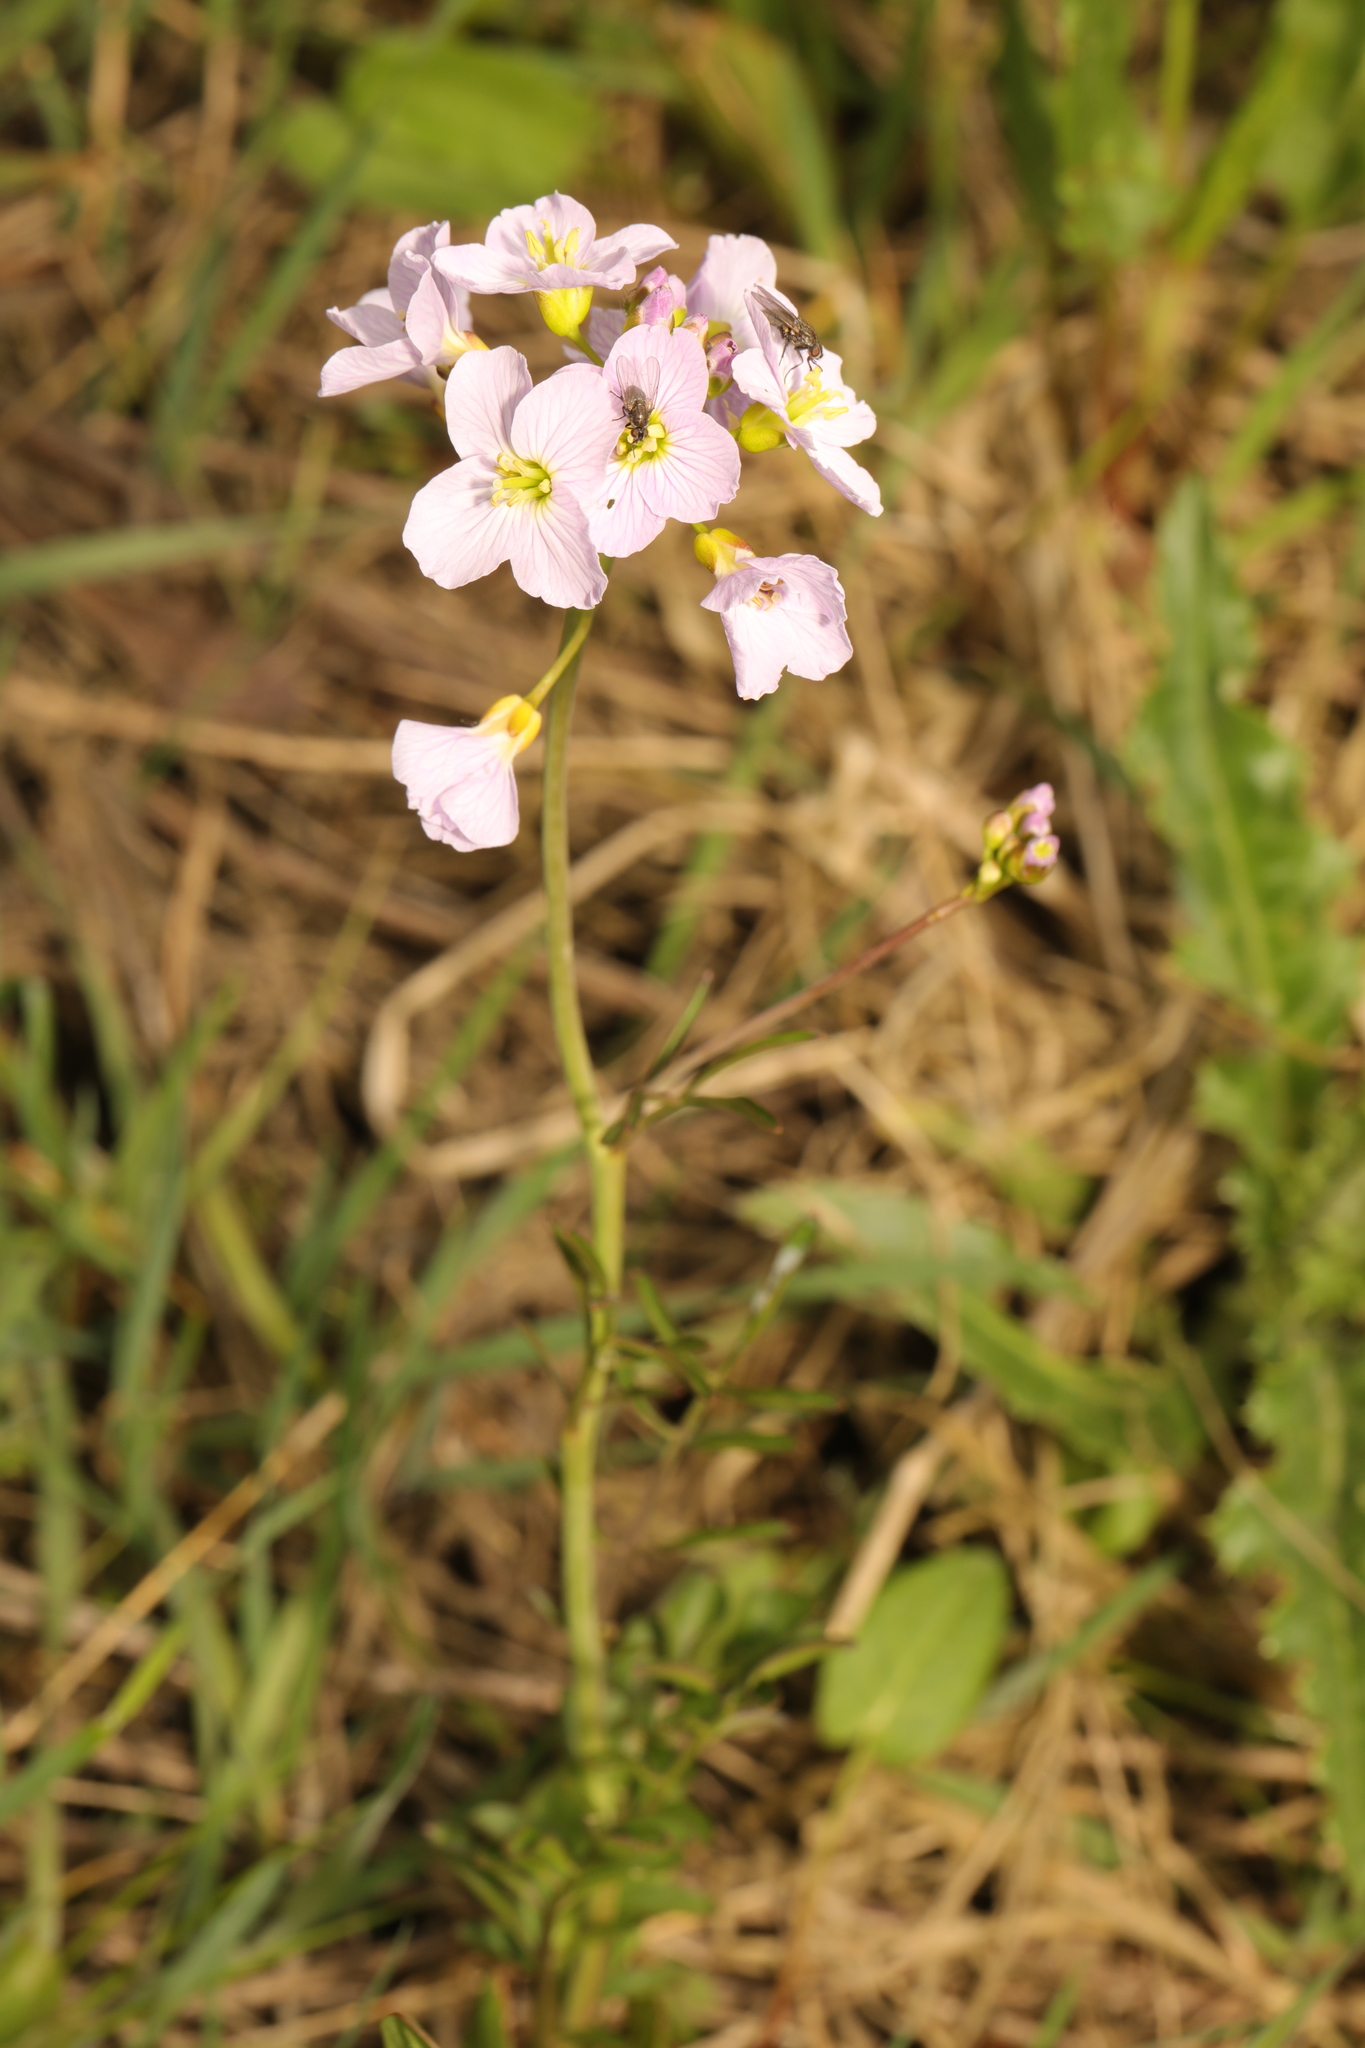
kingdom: Plantae
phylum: Tracheophyta
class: Magnoliopsida
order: Brassicales
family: Brassicaceae
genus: Cardamine
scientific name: Cardamine pratensis
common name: Cuckoo flower
